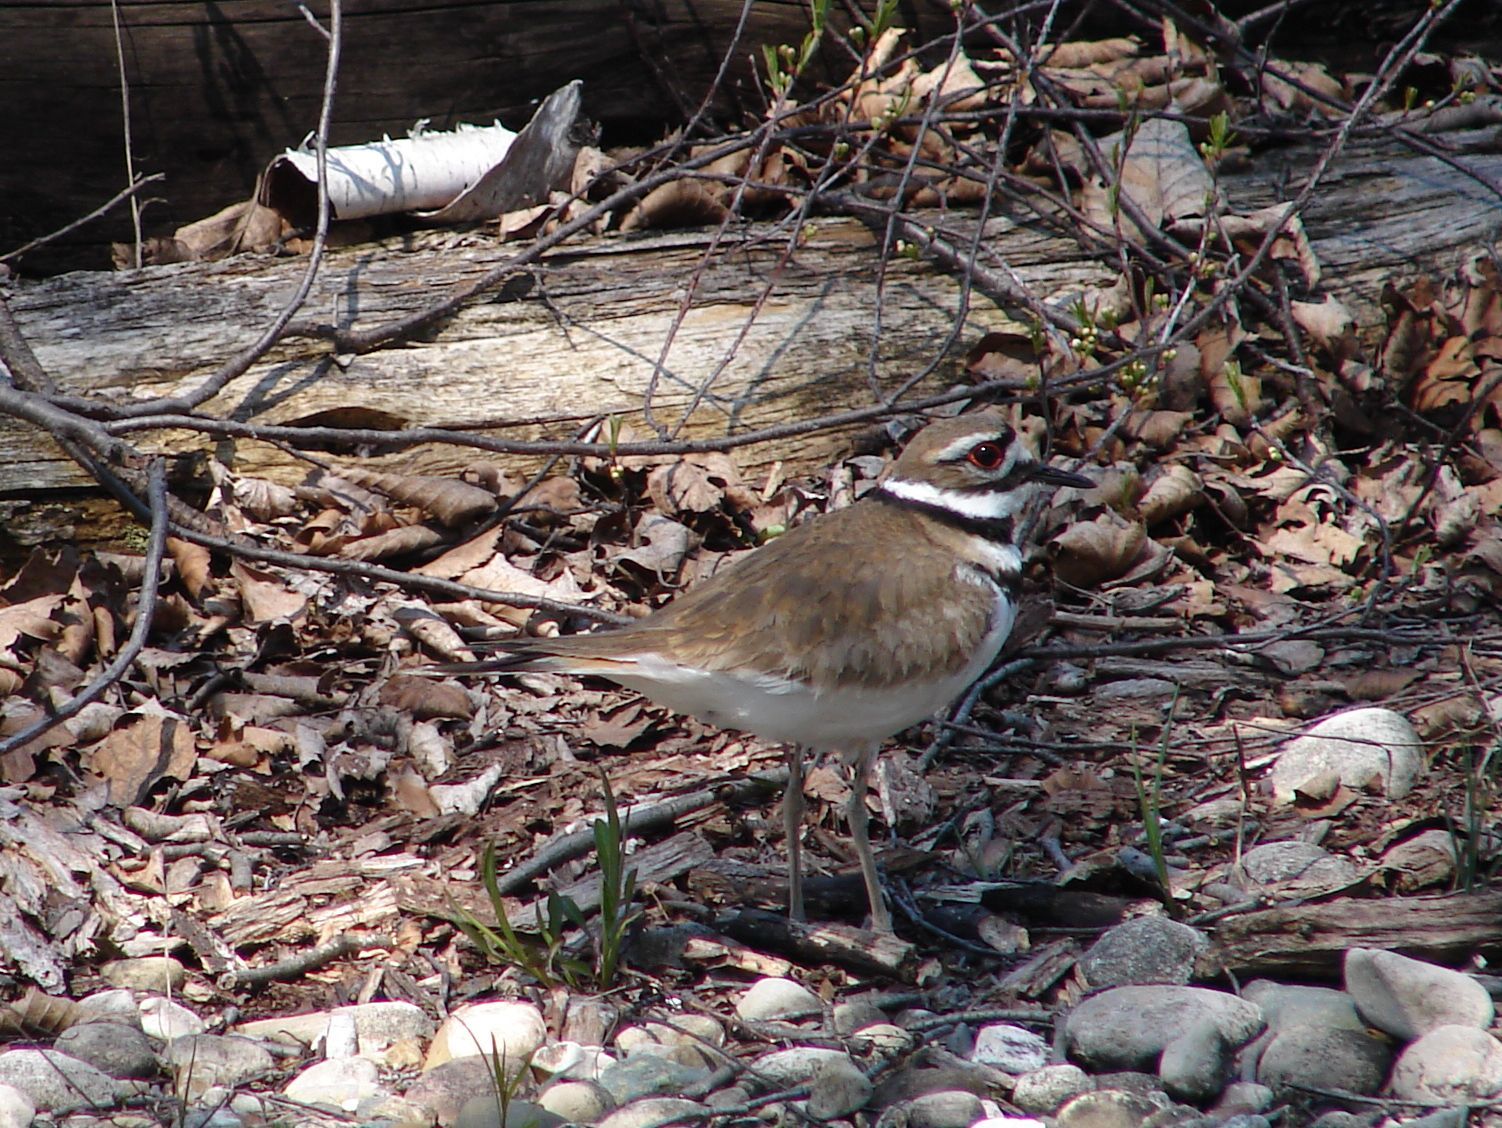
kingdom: Animalia
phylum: Chordata
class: Aves
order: Charadriiformes
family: Charadriidae
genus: Charadrius
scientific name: Charadrius vociferus
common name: Killdeer
